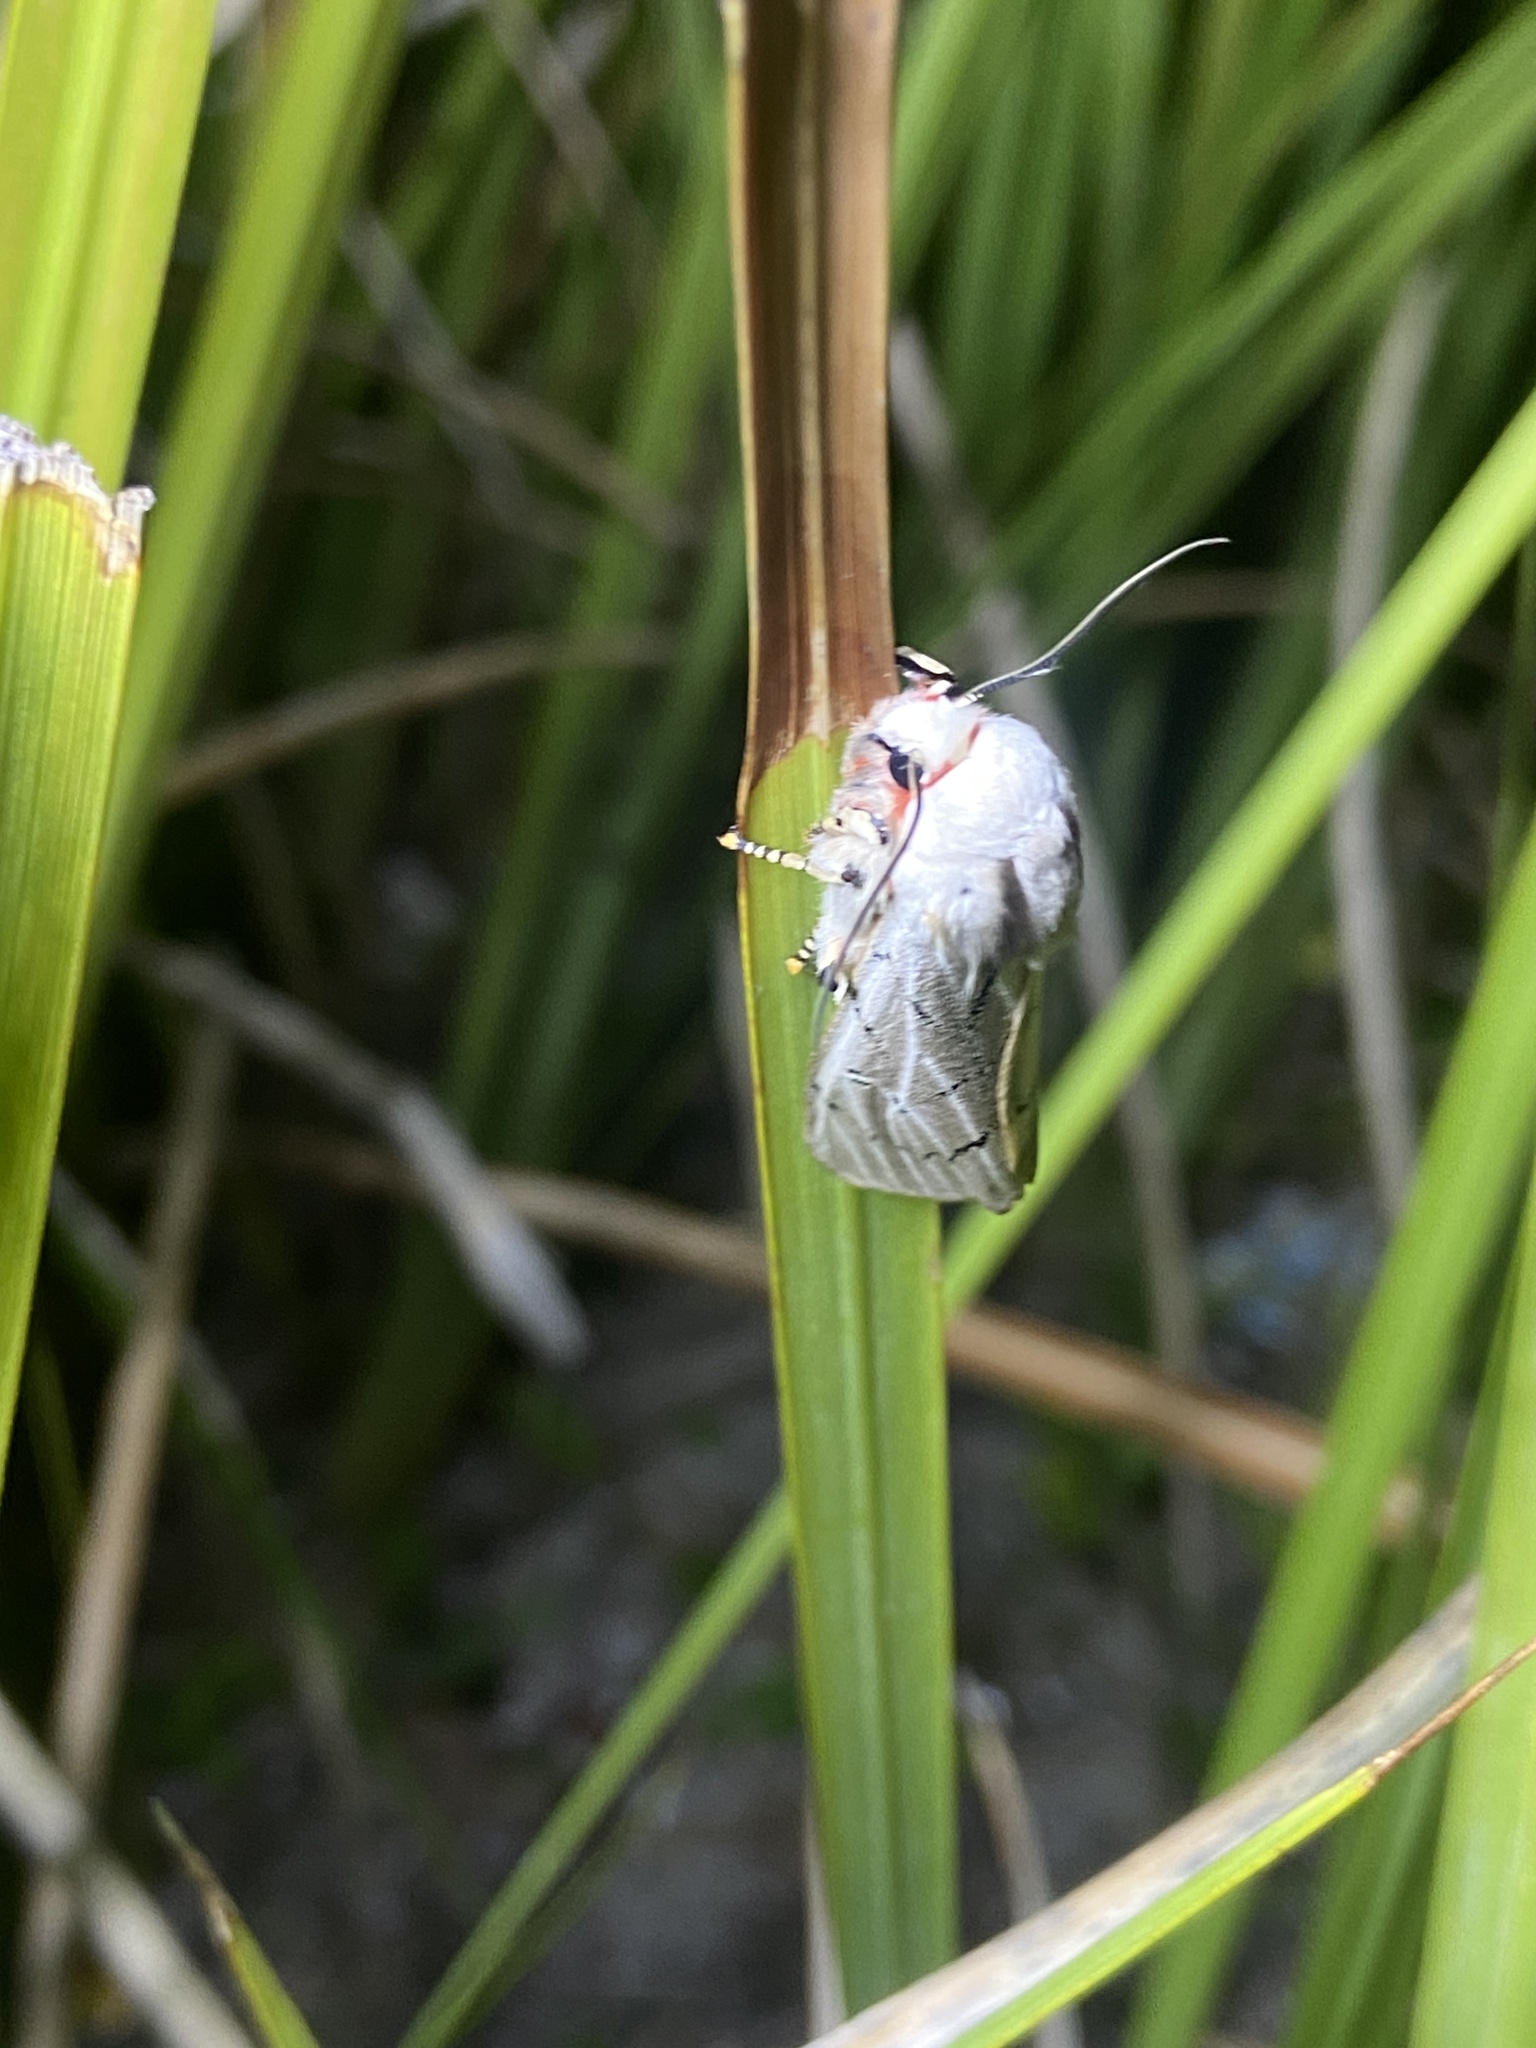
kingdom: Animalia
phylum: Arthropoda
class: Insecta
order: Lepidoptera
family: Erebidae
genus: Rhodogastria
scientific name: Rhodogastria amasis
